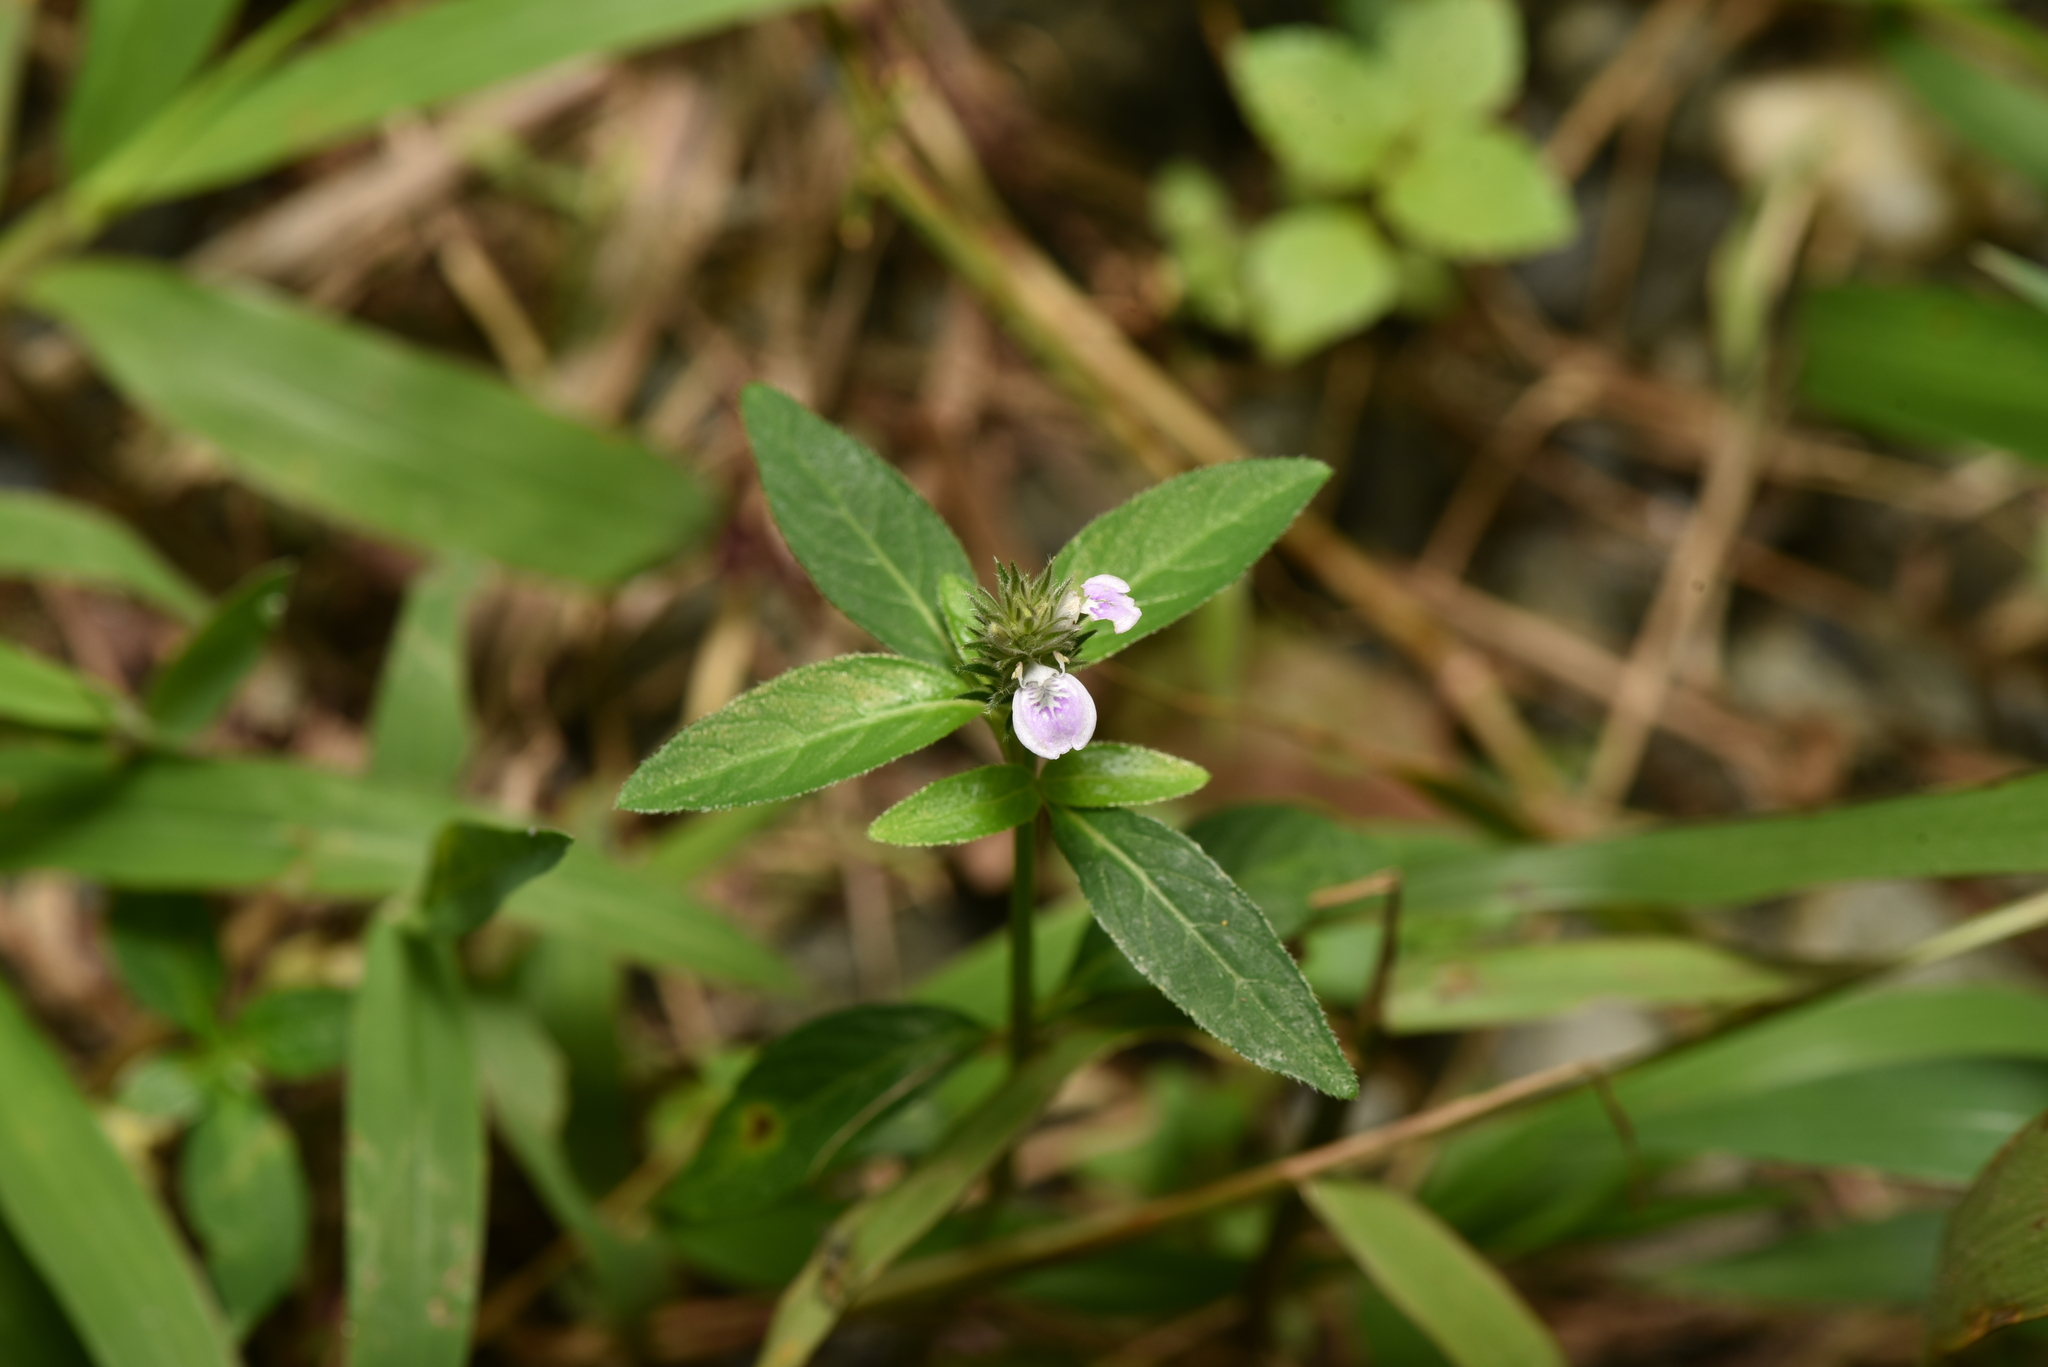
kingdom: Plantae
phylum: Tracheophyta
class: Magnoliopsida
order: Lamiales
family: Acanthaceae
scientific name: Acanthaceae
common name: Acanthaceae
